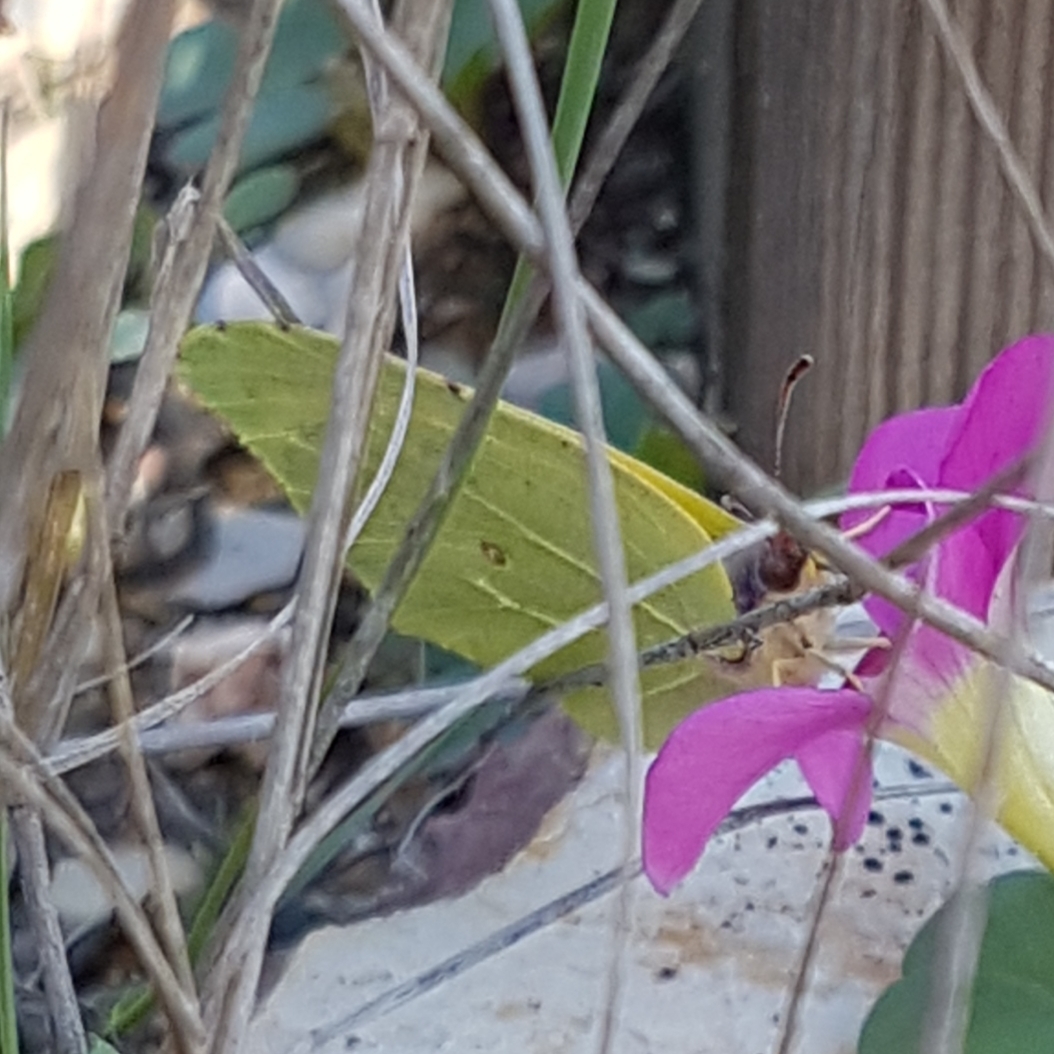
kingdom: Animalia
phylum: Arthropoda
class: Insecta
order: Lepidoptera
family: Pieridae
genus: Gonepteryx
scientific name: Gonepteryx cleopatra
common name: Cleopatra
